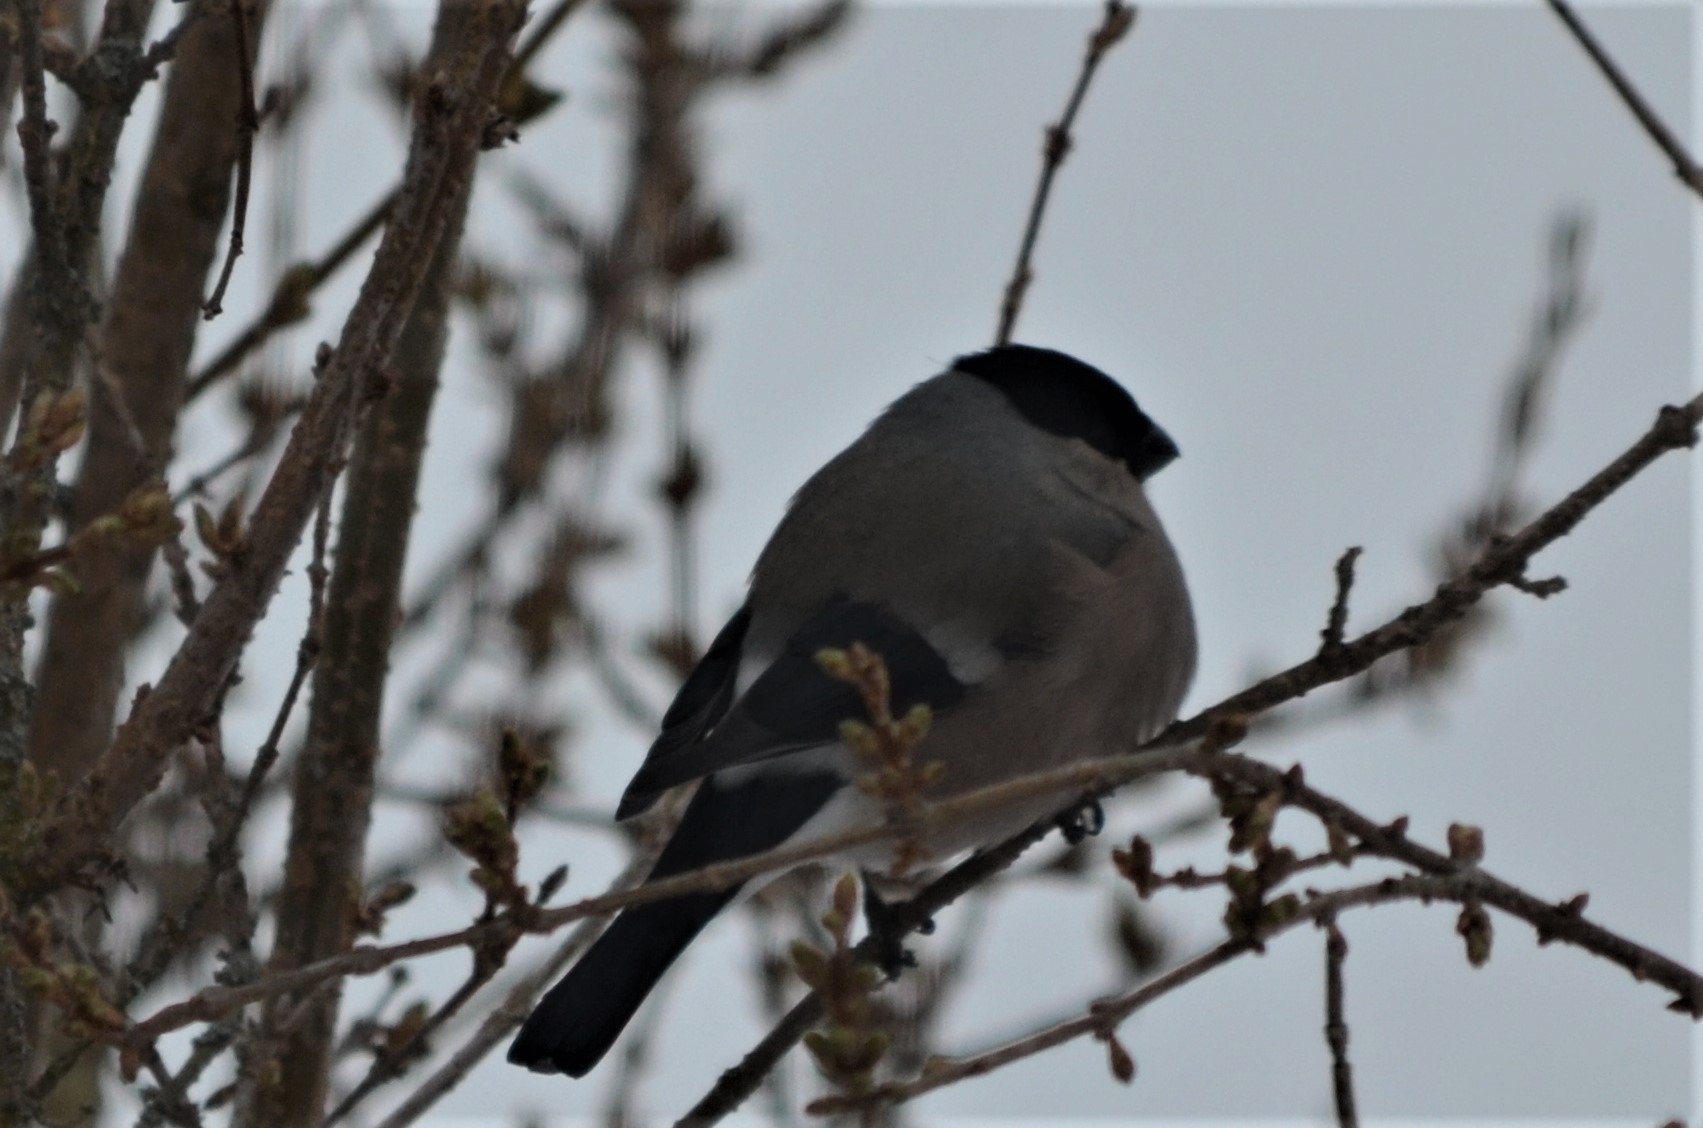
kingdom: Animalia
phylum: Chordata
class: Aves
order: Passeriformes
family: Fringillidae
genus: Pyrrhula
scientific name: Pyrrhula pyrrhula
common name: Eurasian bullfinch
